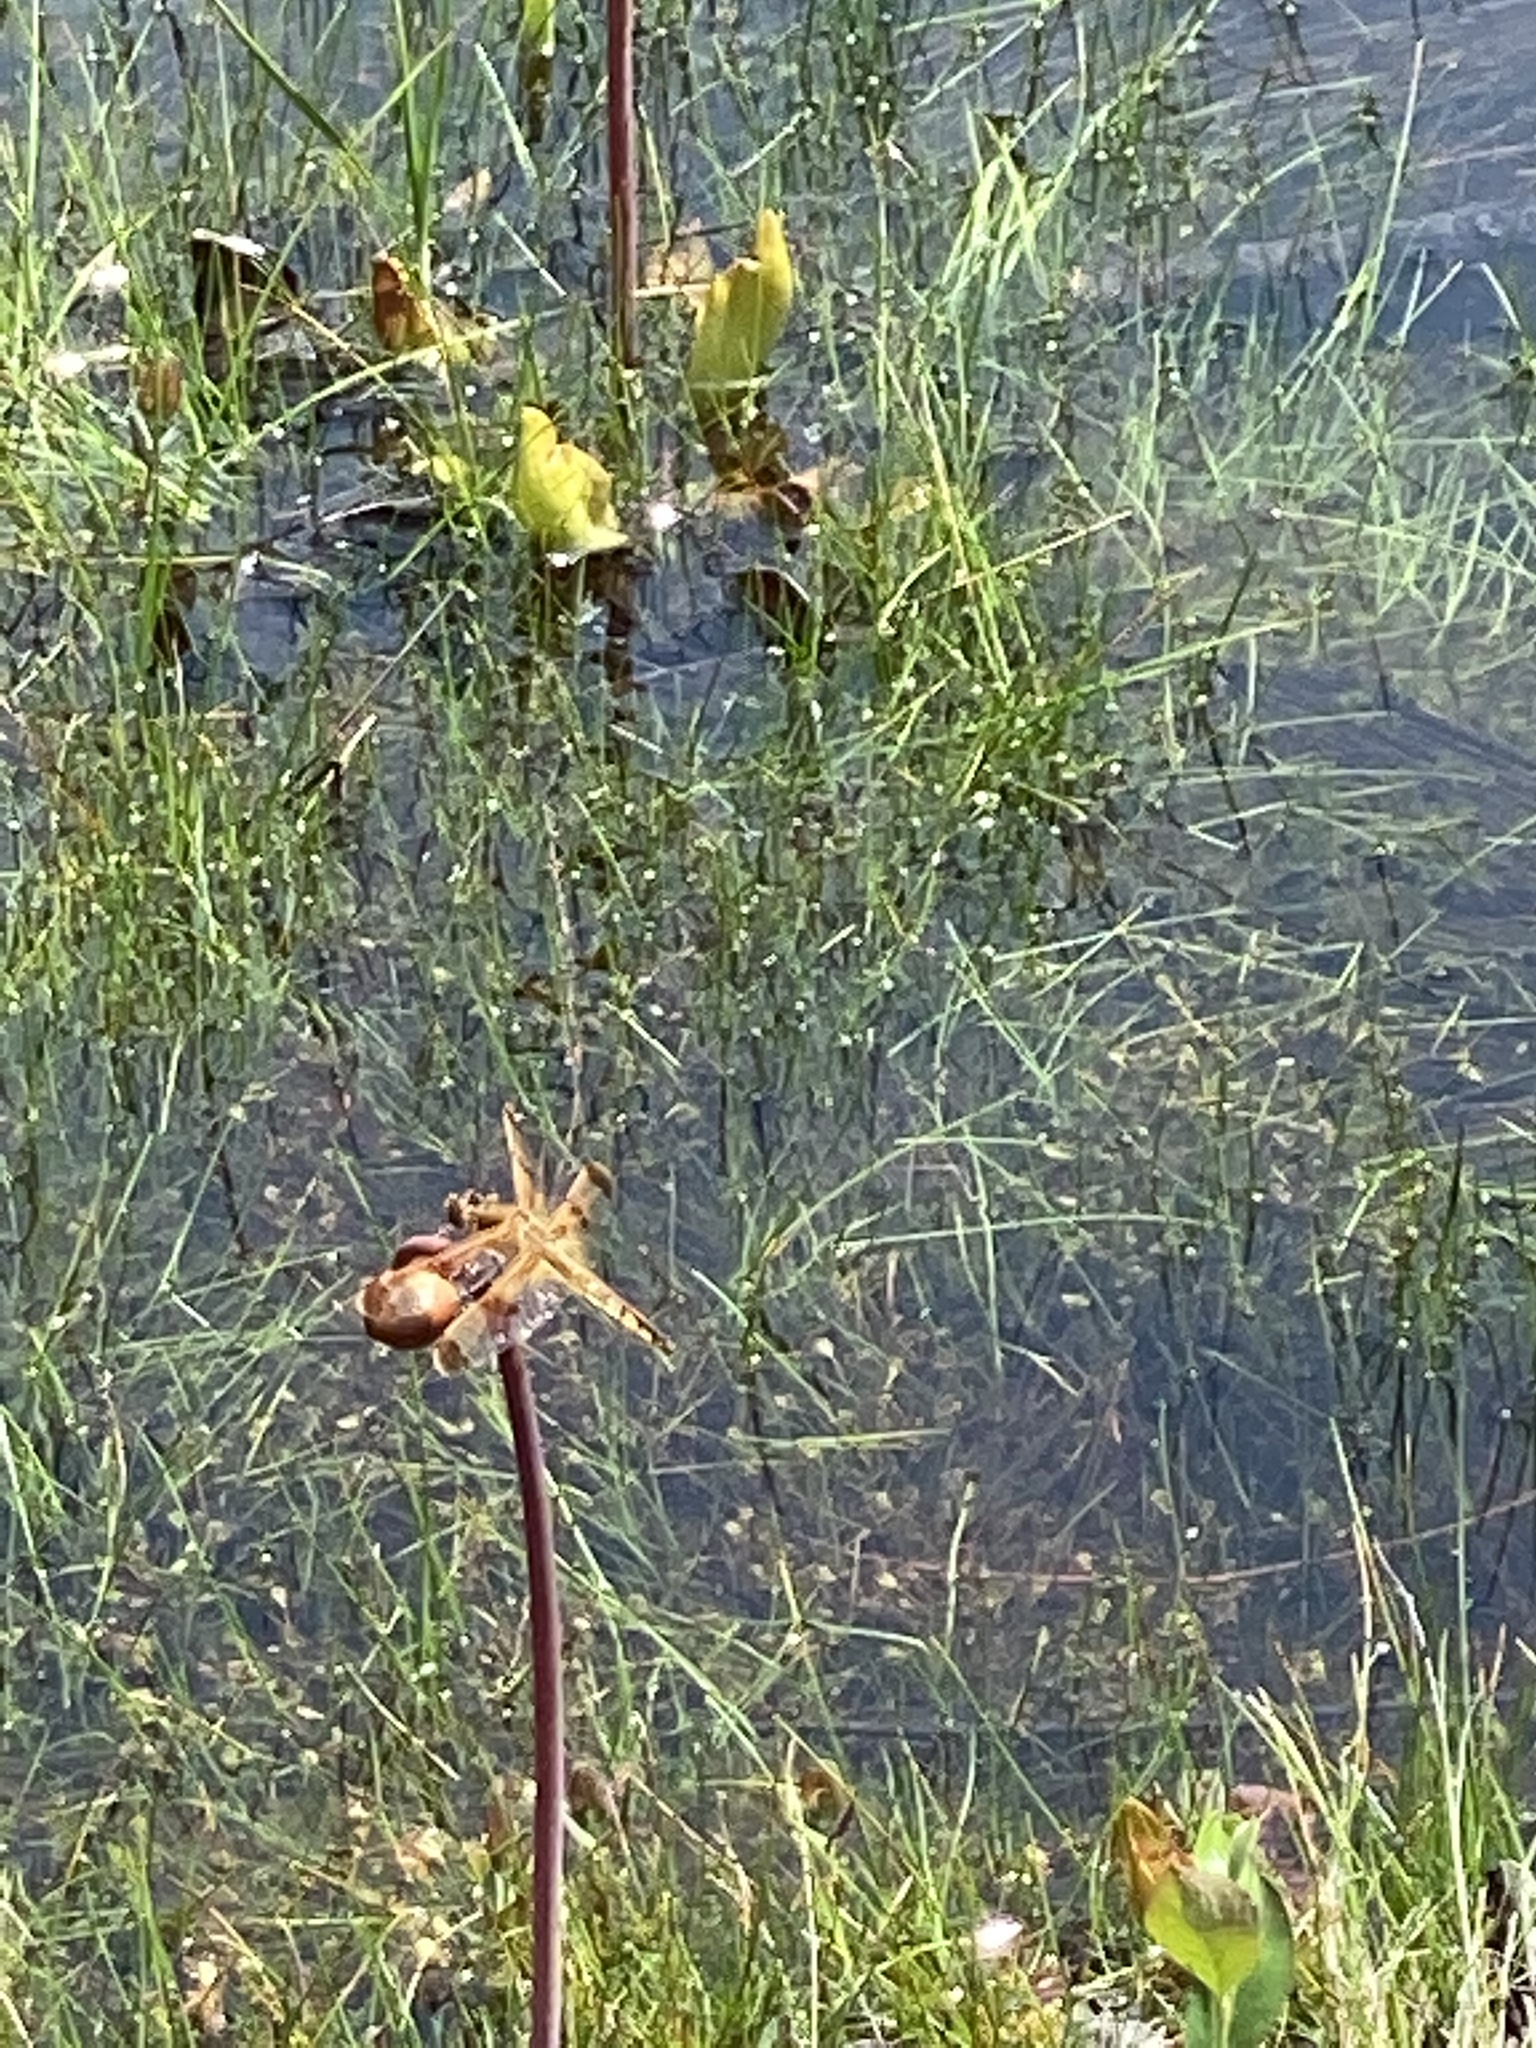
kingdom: Plantae
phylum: Tracheophyta
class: Magnoliopsida
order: Ericales
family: Sarraceniaceae
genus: Sarracenia
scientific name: Sarracenia purpurea
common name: Pitcherplant
